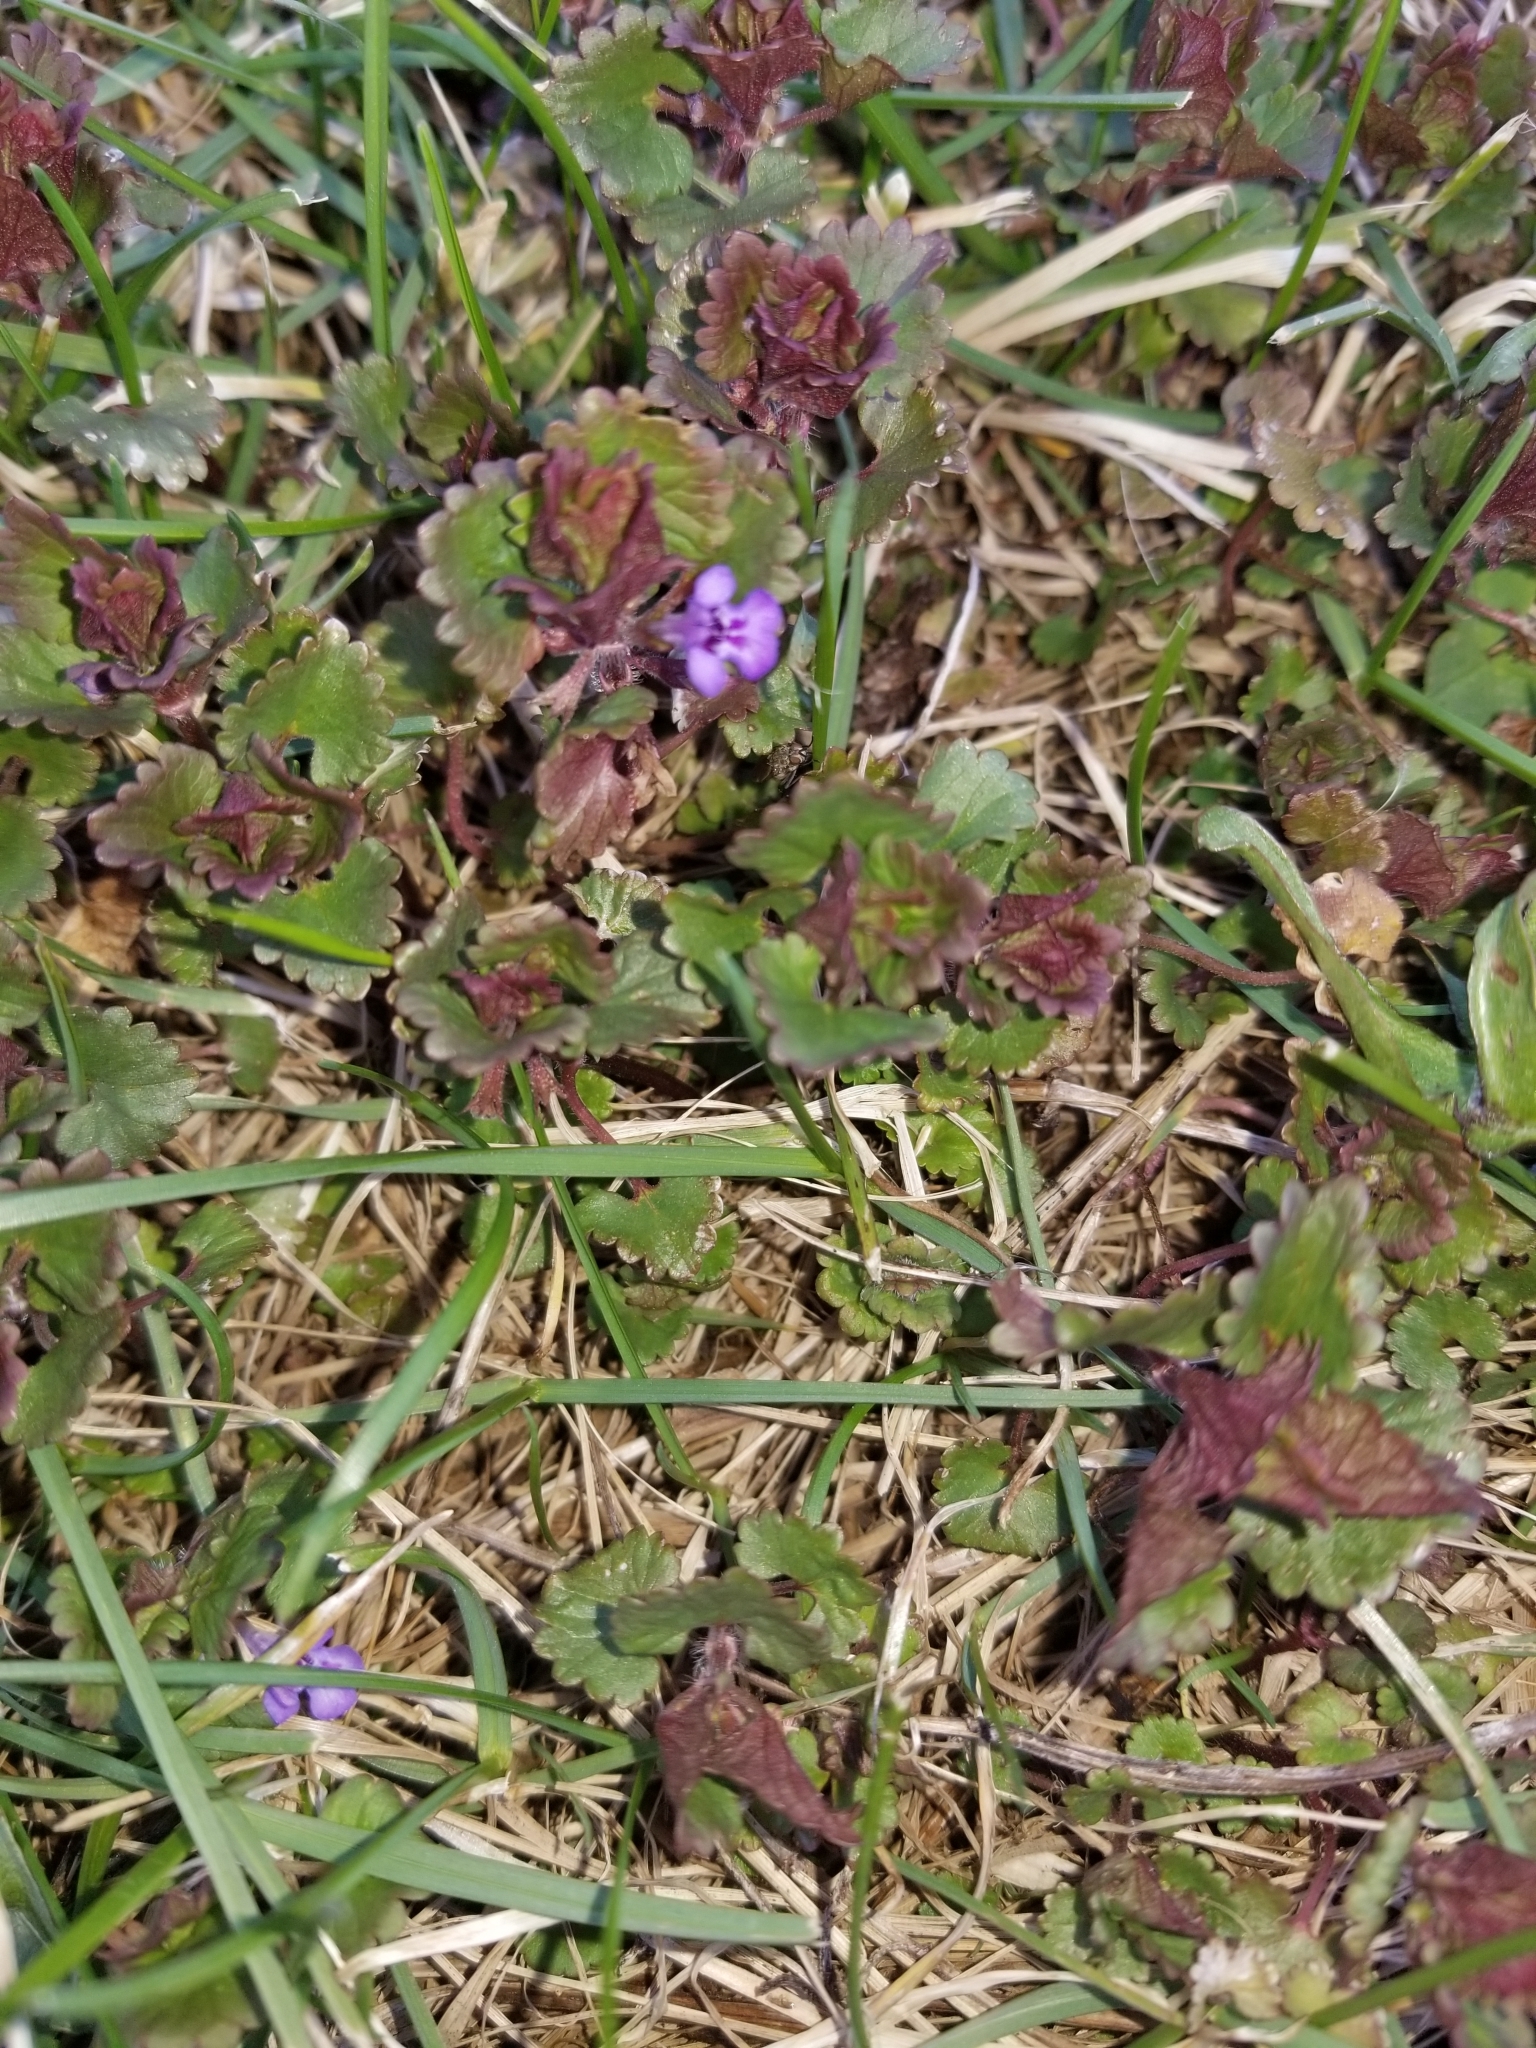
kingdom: Plantae
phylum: Tracheophyta
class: Magnoliopsida
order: Lamiales
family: Lamiaceae
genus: Glechoma
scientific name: Glechoma hederacea
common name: Ground ivy
